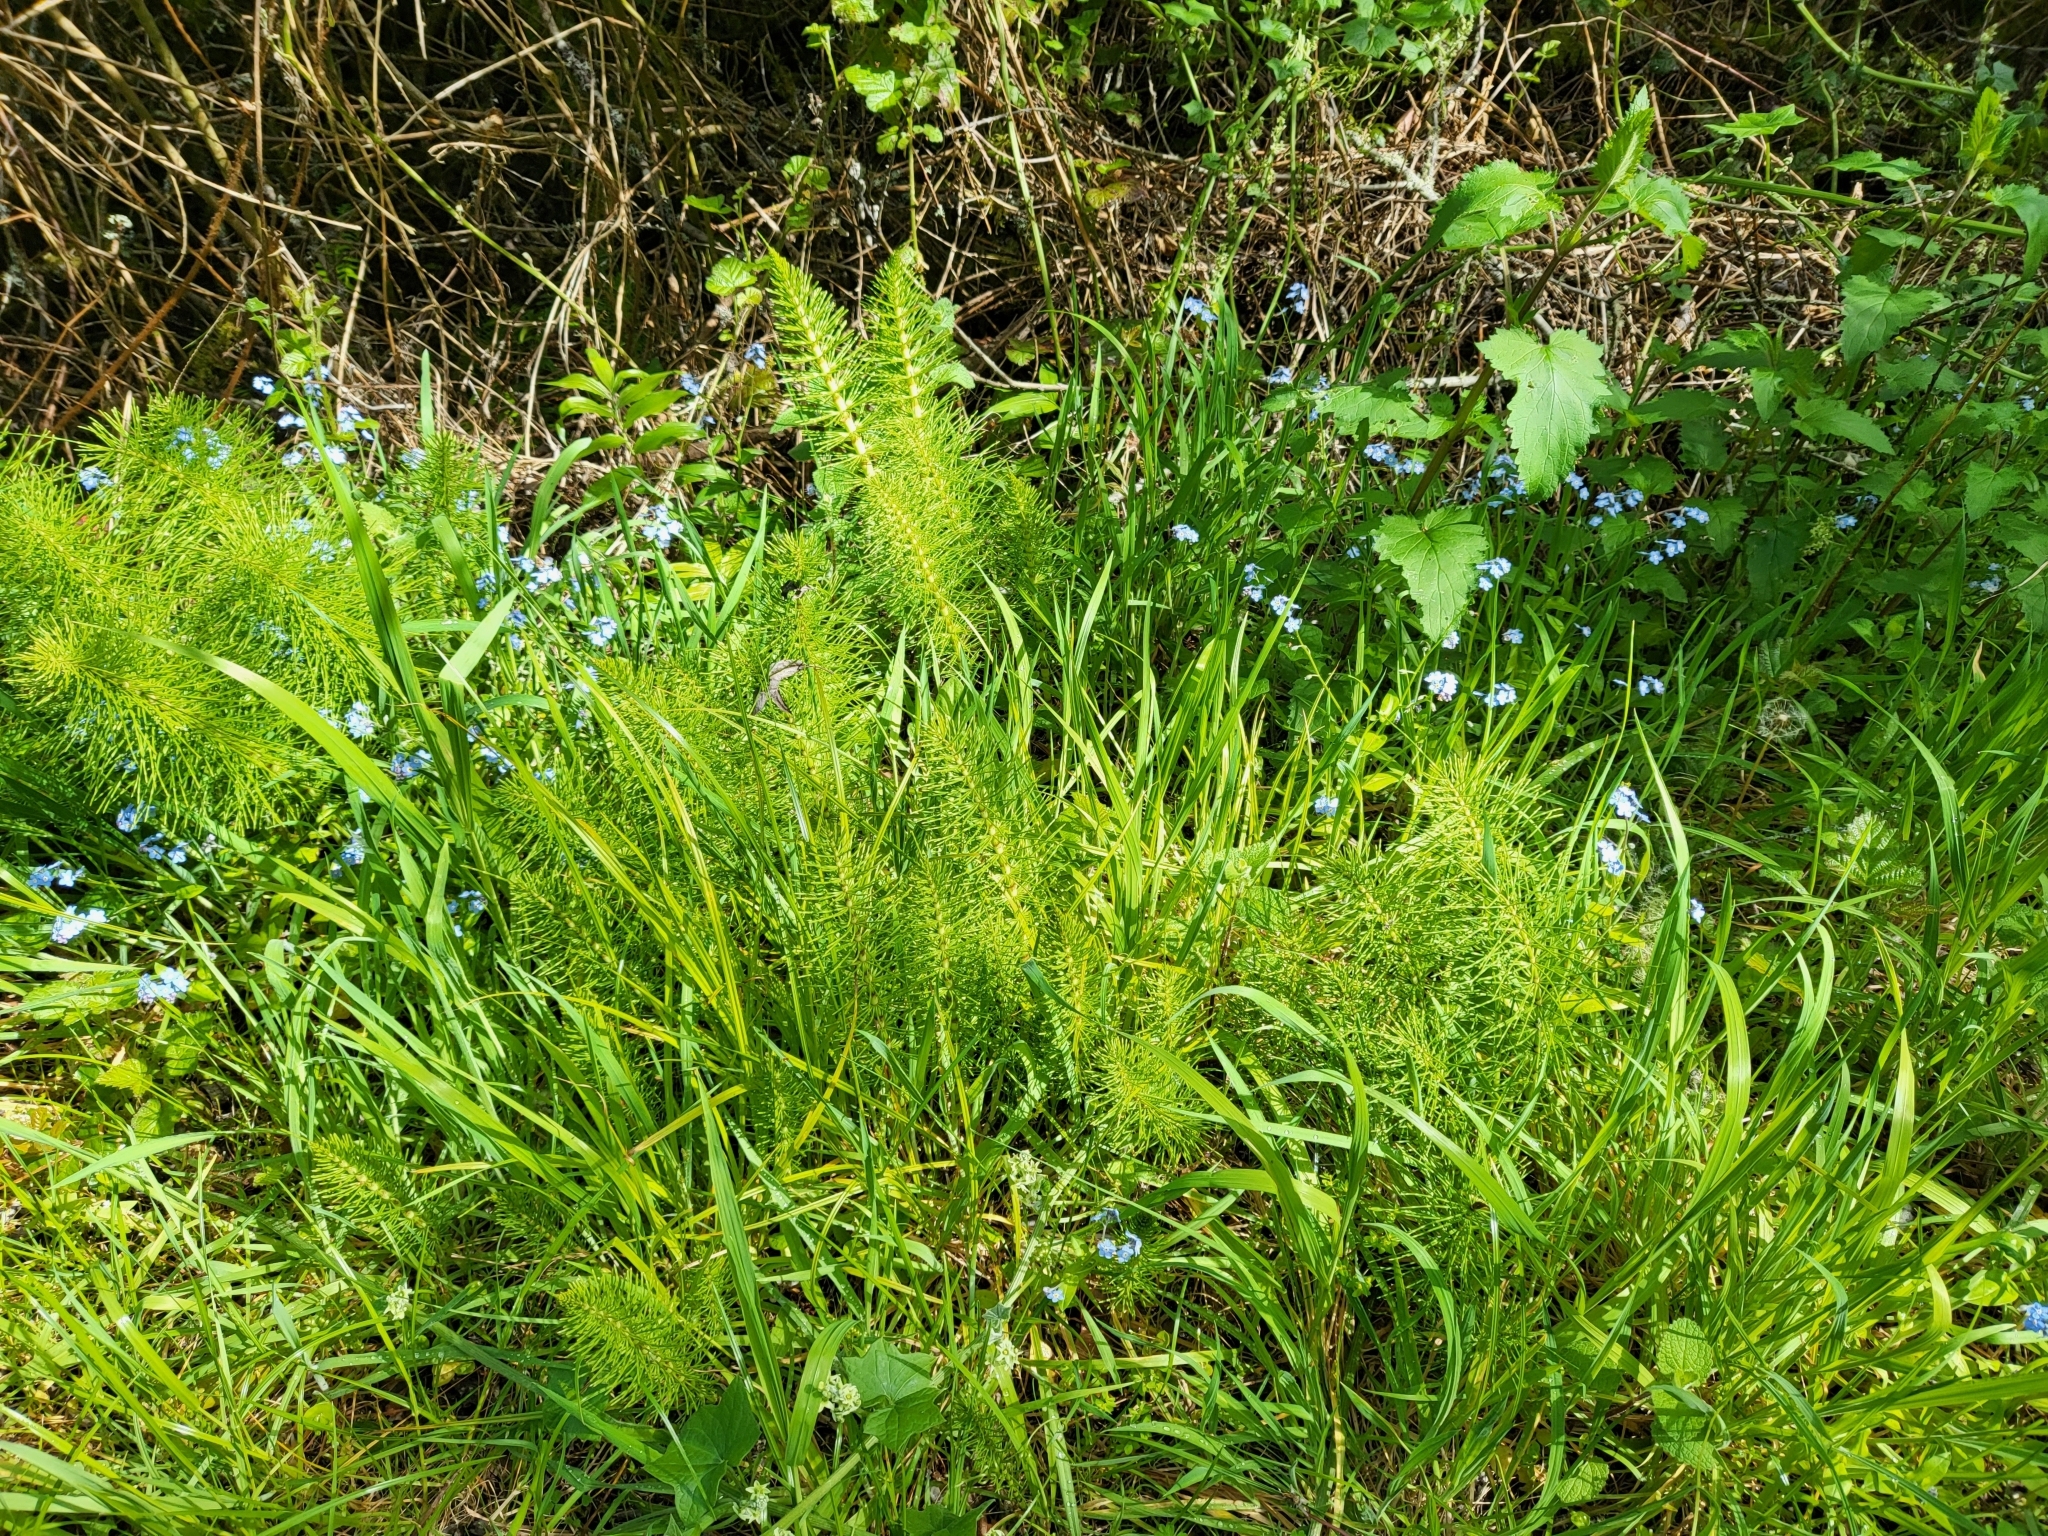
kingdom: Plantae
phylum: Tracheophyta
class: Polypodiopsida
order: Equisetales
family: Equisetaceae
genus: Equisetum
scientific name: Equisetum telmateia
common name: Great horsetail
